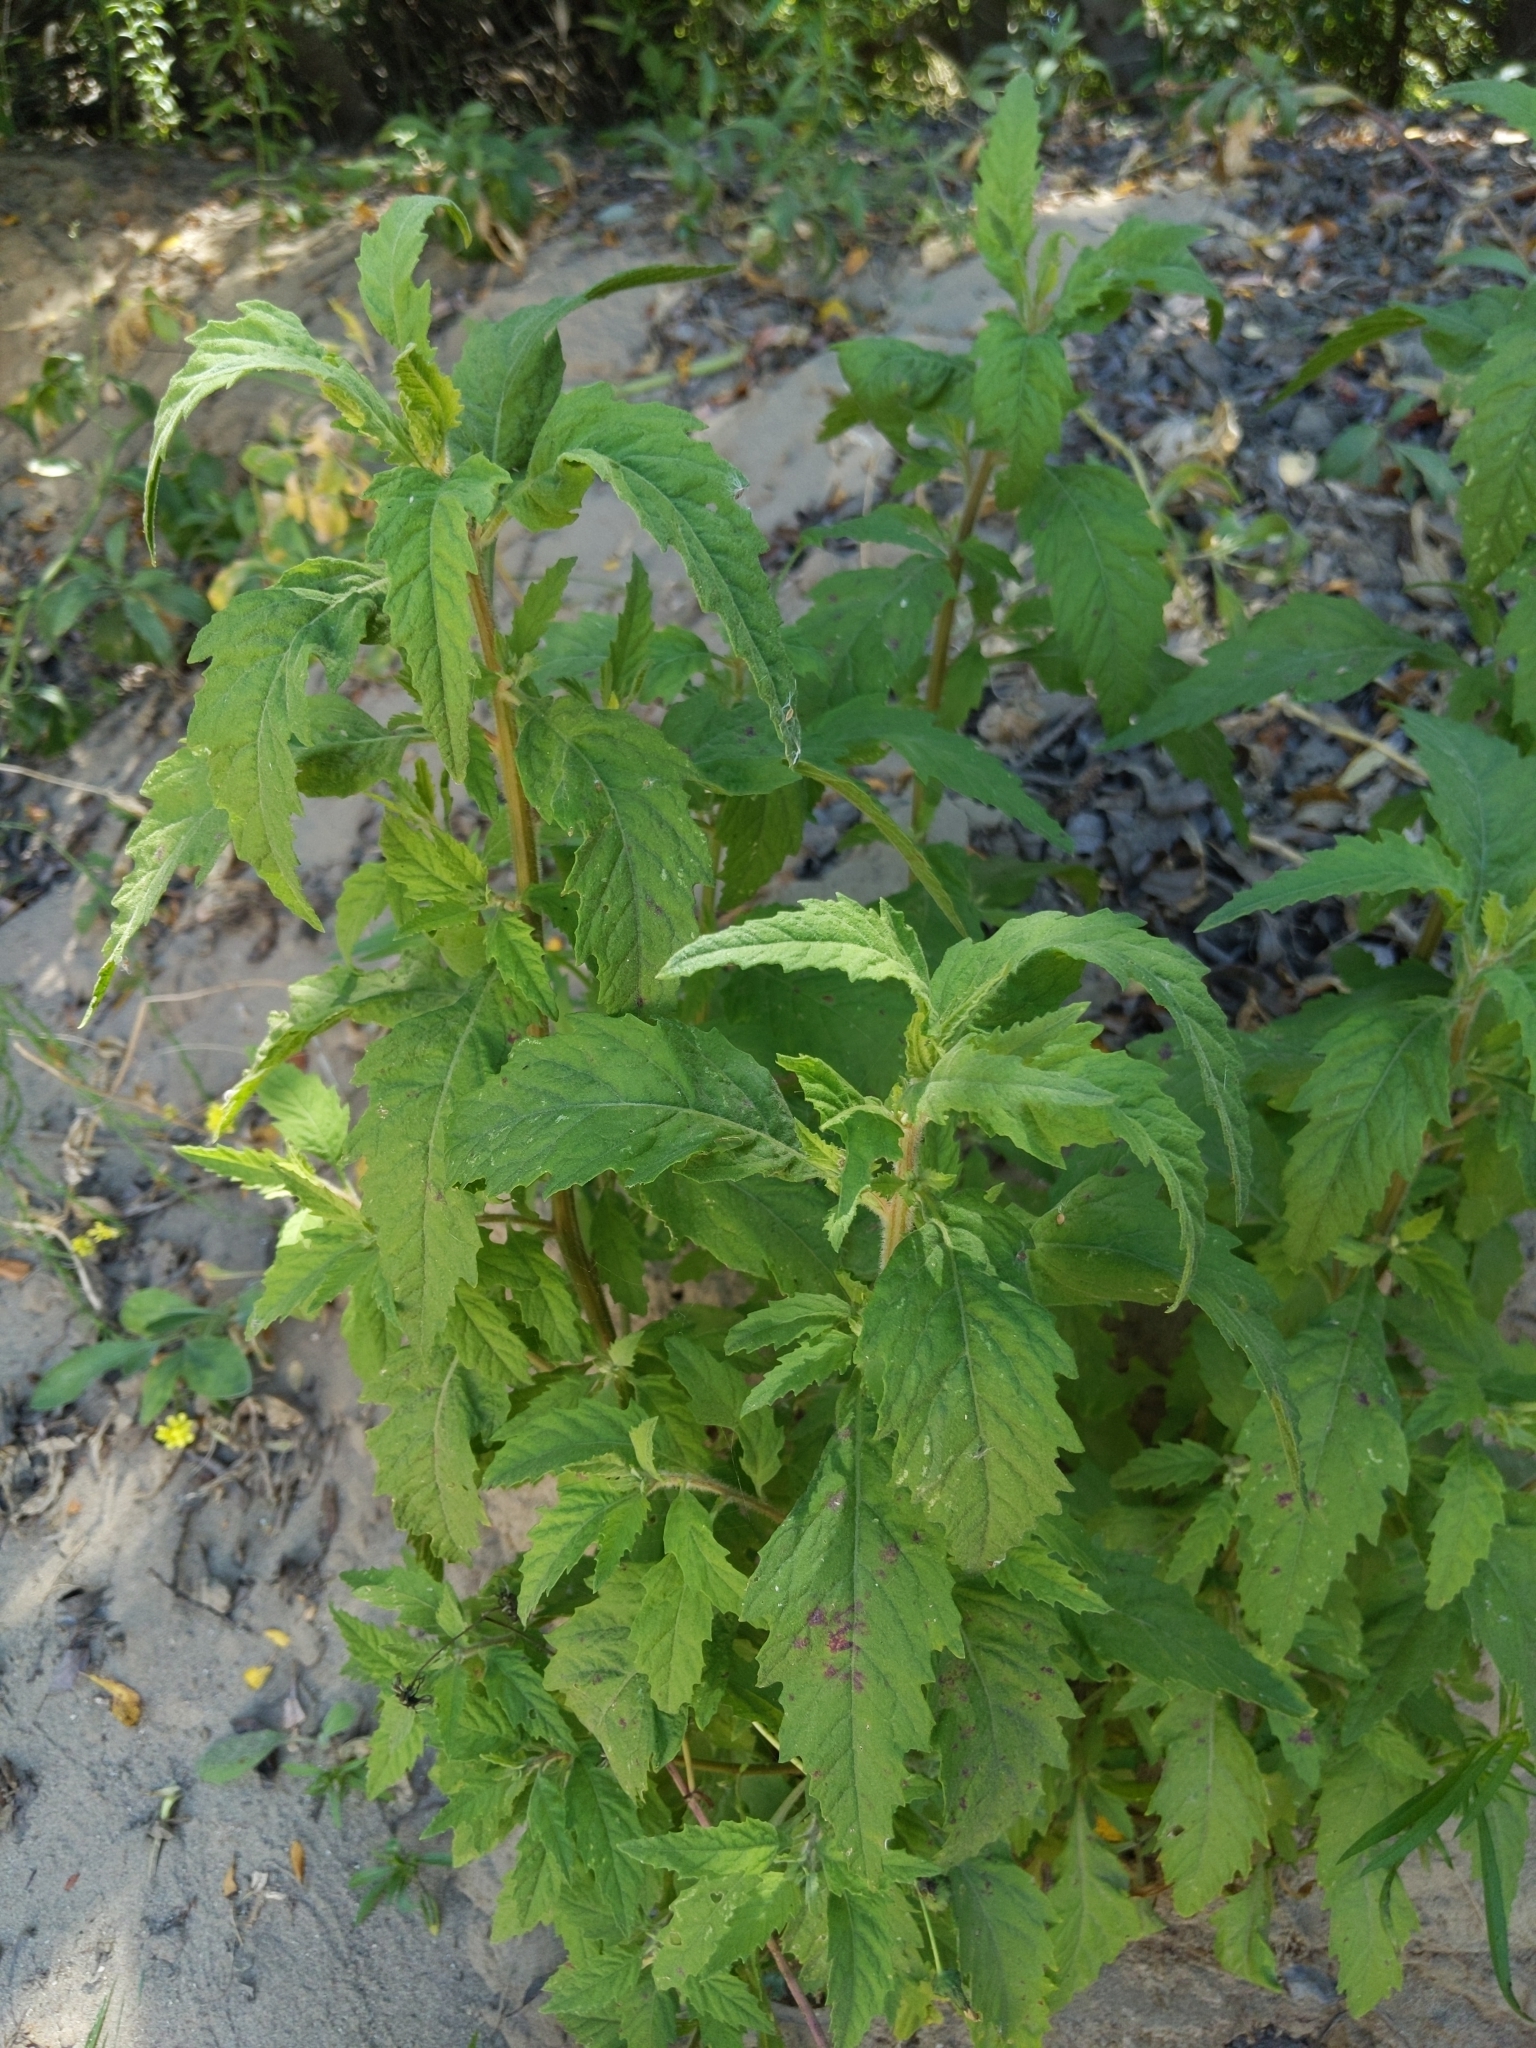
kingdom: Plantae
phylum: Tracheophyta
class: Magnoliopsida
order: Caryophyllales
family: Amaranthaceae
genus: Dysphania
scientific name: Dysphania ambrosioides
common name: Wormseed
